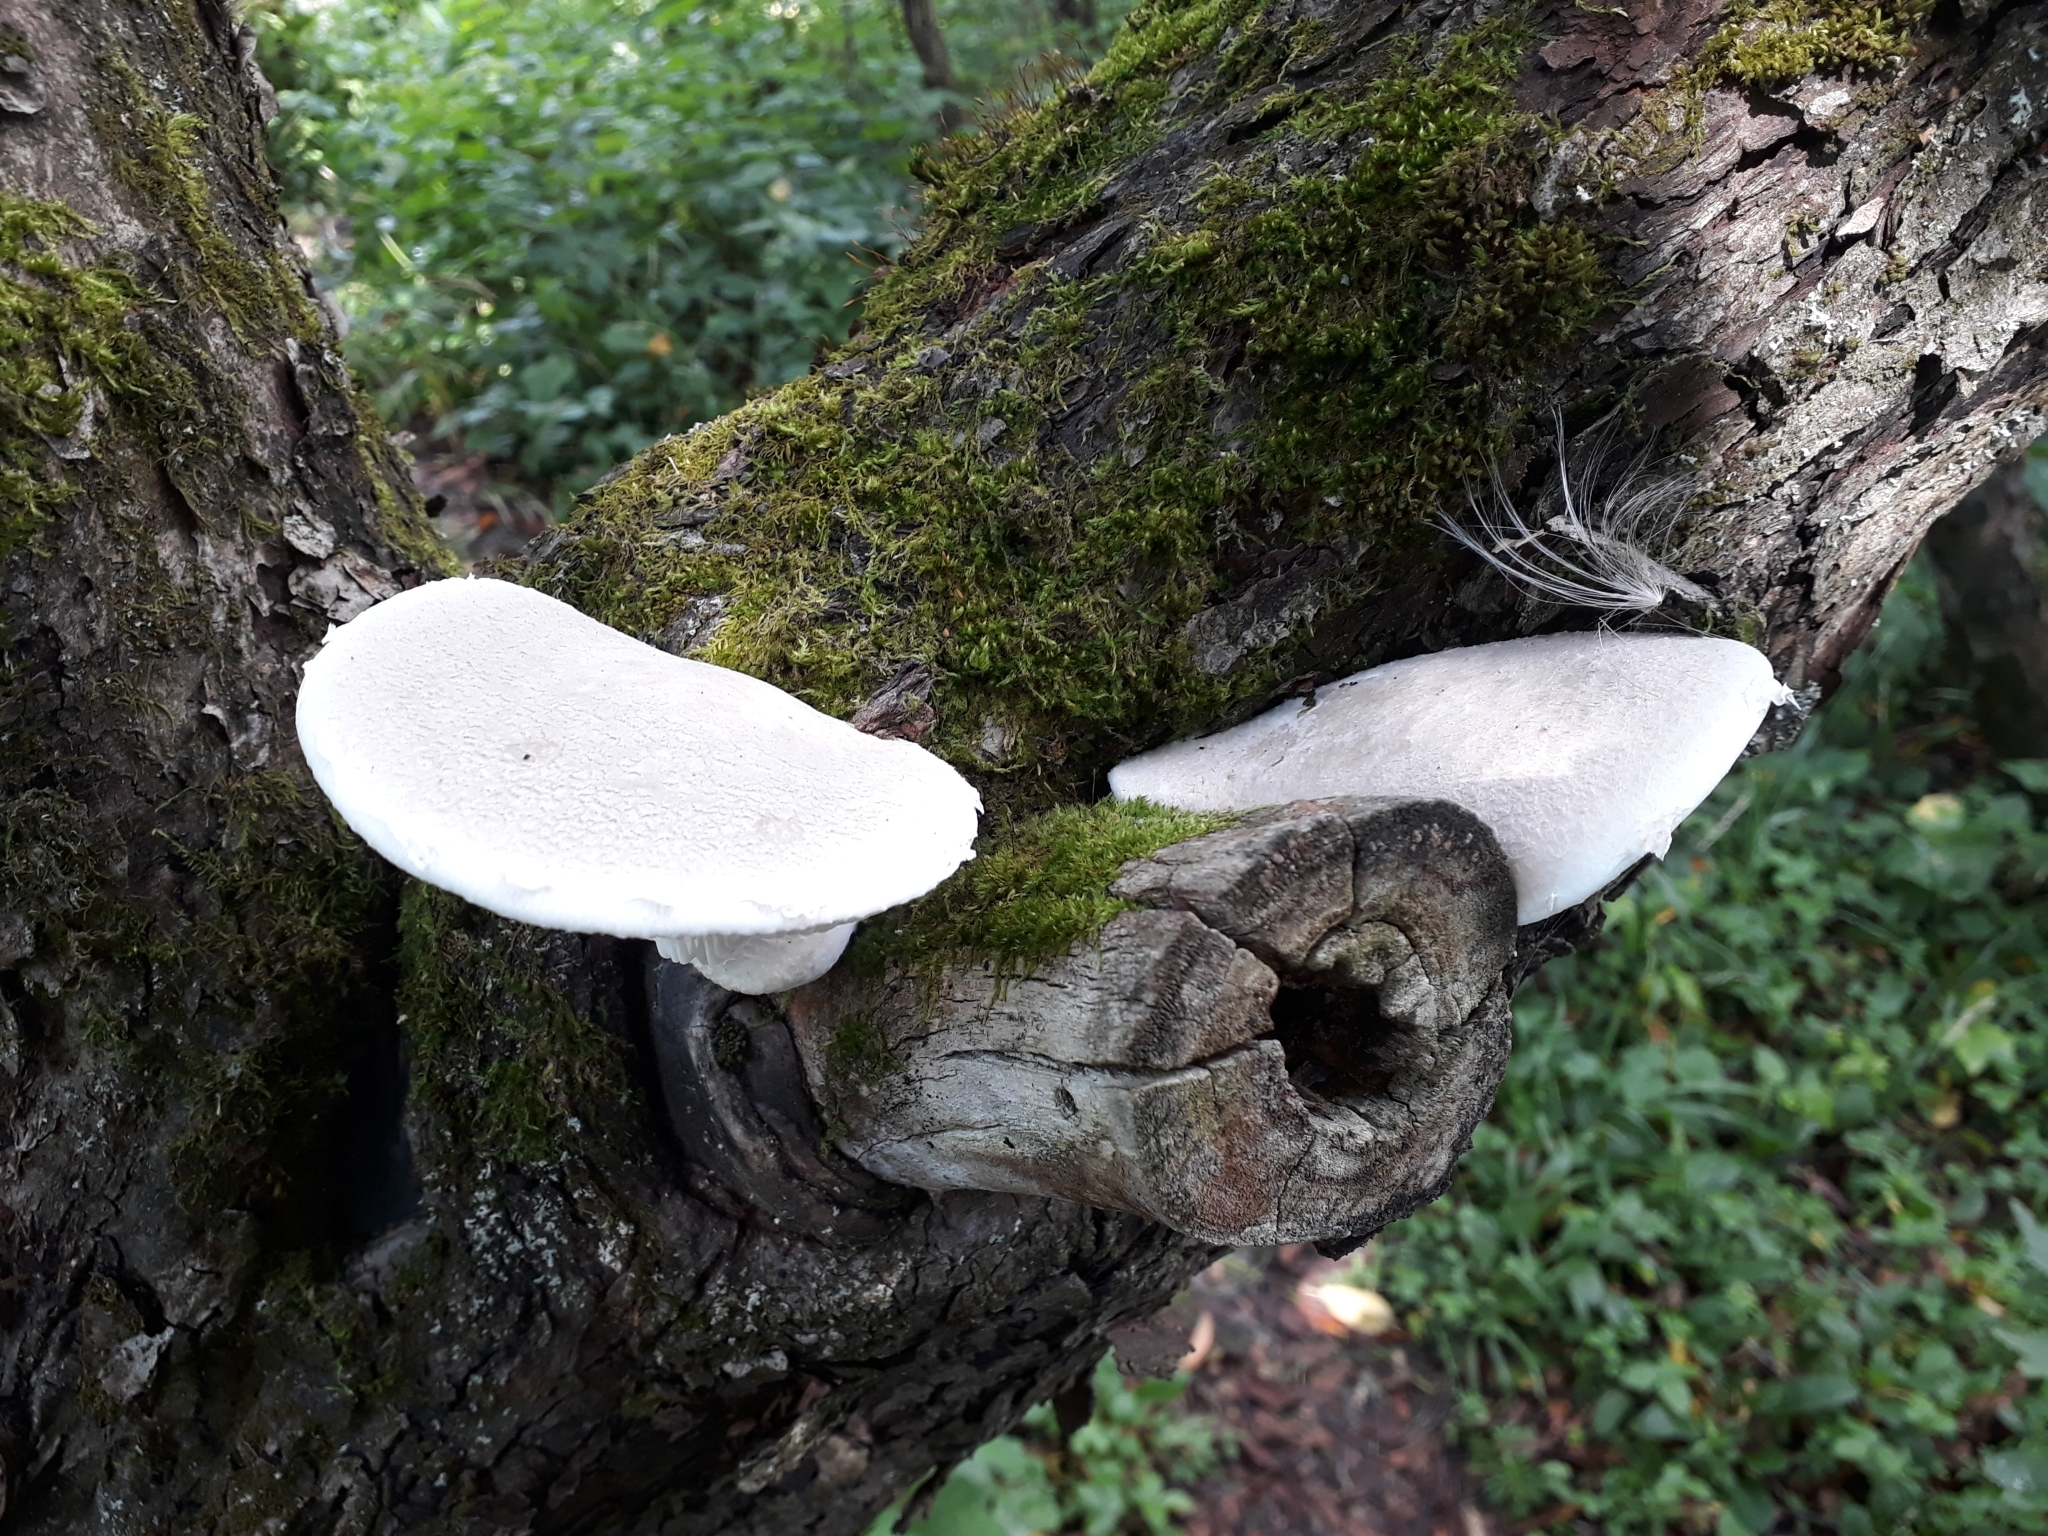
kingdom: Fungi
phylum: Basidiomycota
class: Agaricomycetes
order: Agaricales
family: Pleurotaceae
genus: Pleurotus
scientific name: Pleurotus dryinus
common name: Veiled oyster
